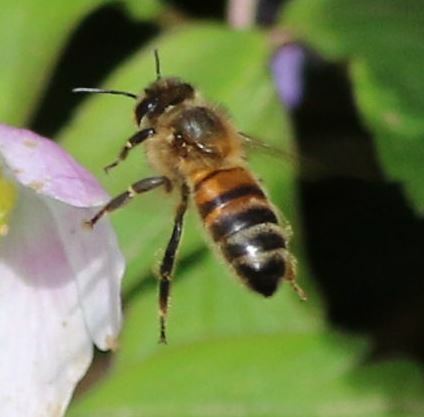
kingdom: Animalia
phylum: Arthropoda
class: Insecta
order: Hymenoptera
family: Apidae
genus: Apis
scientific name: Apis mellifera
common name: Honey bee
